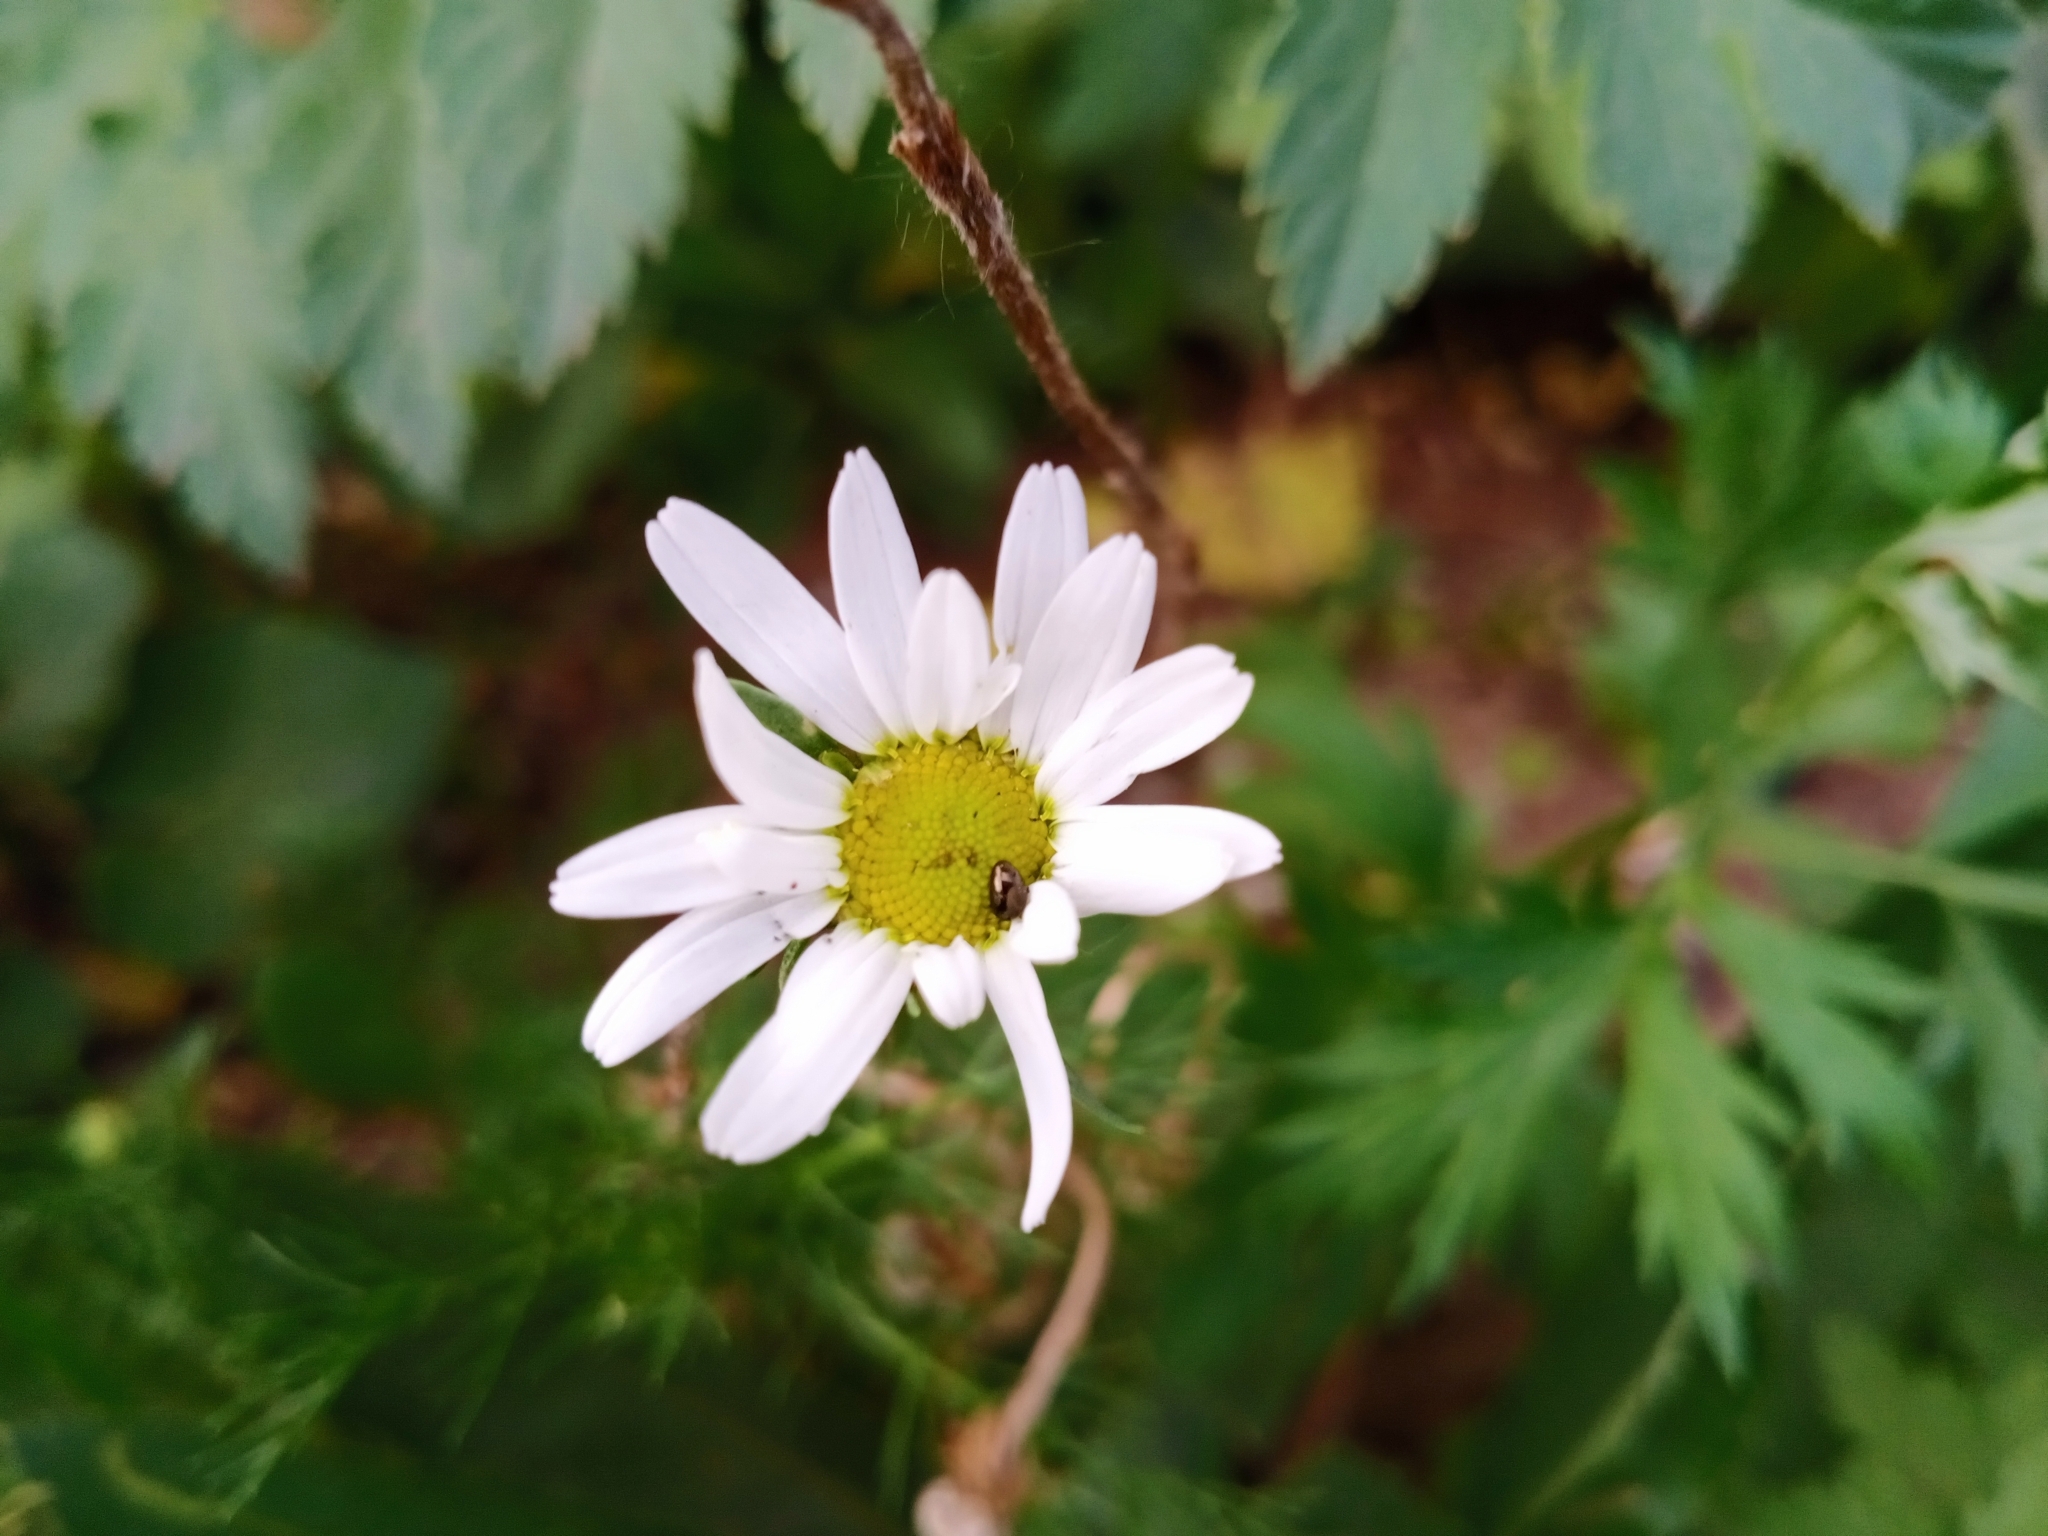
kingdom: Plantae
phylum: Tracheophyta
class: Magnoliopsida
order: Asterales
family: Asteraceae
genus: Tripleurospermum
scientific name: Tripleurospermum inodorum
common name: Scentless mayweed
